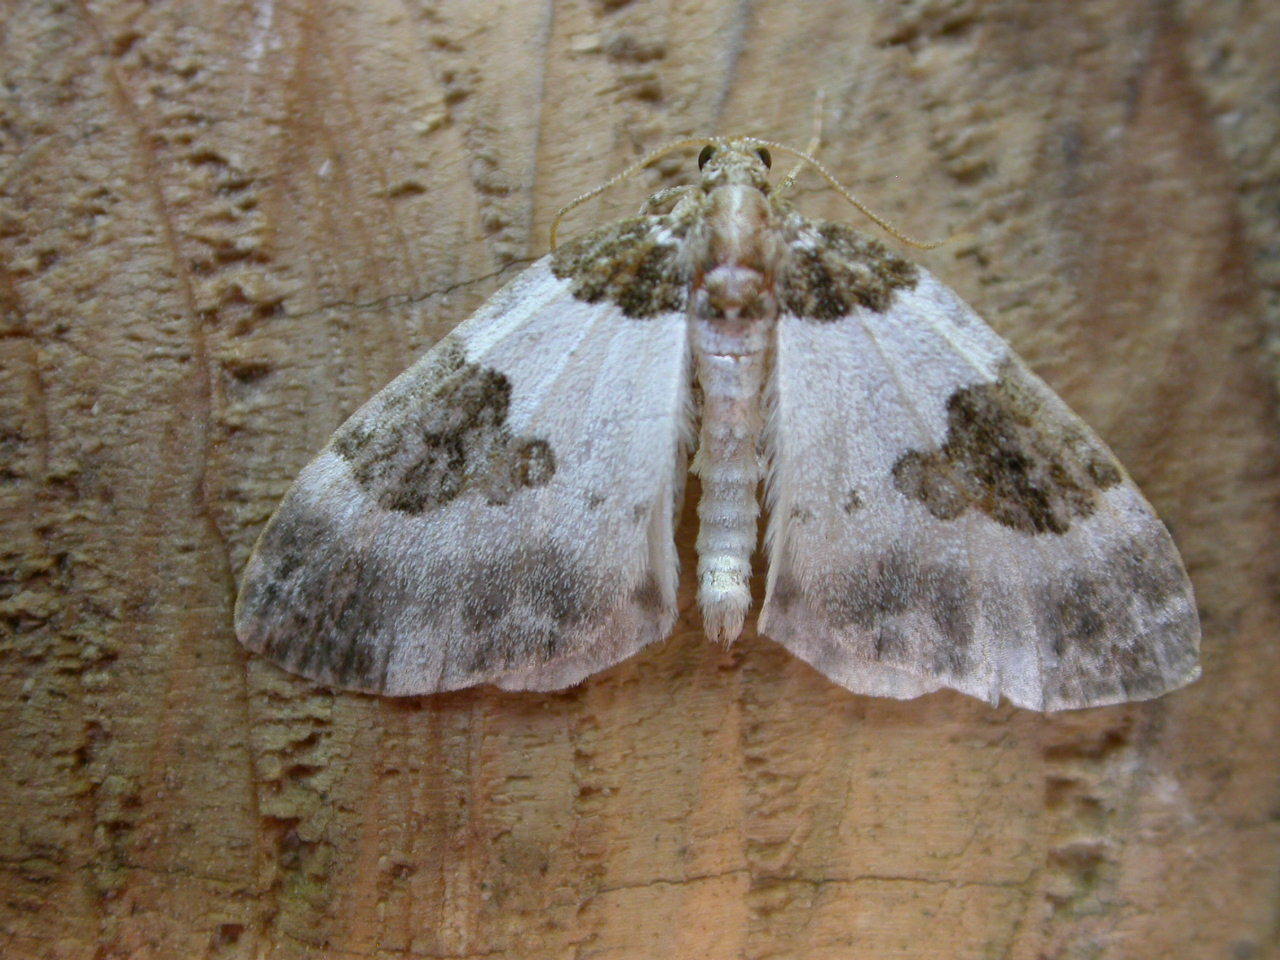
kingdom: Animalia
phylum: Arthropoda
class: Insecta
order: Lepidoptera
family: Geometridae
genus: Plemyria
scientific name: Plemyria rubiginata
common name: Blue-bordered carpet
